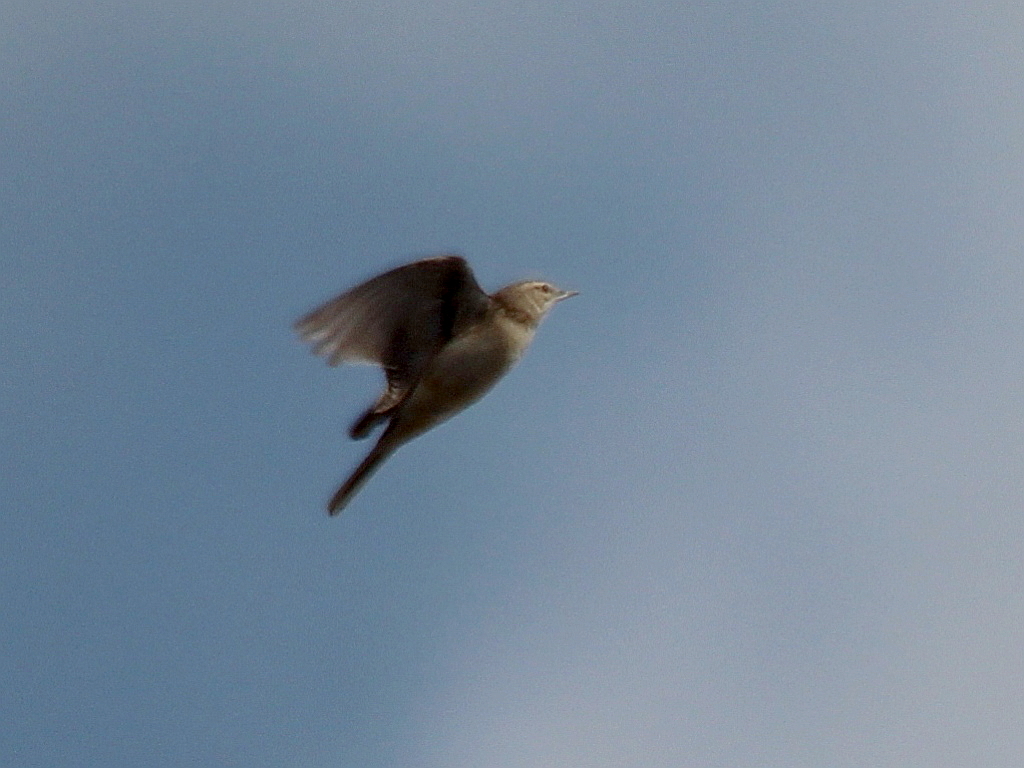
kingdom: Animalia
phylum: Chordata
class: Aves
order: Passeriformes
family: Motacillidae
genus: Anthus
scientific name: Anthus campestris
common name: Tawny pipit
